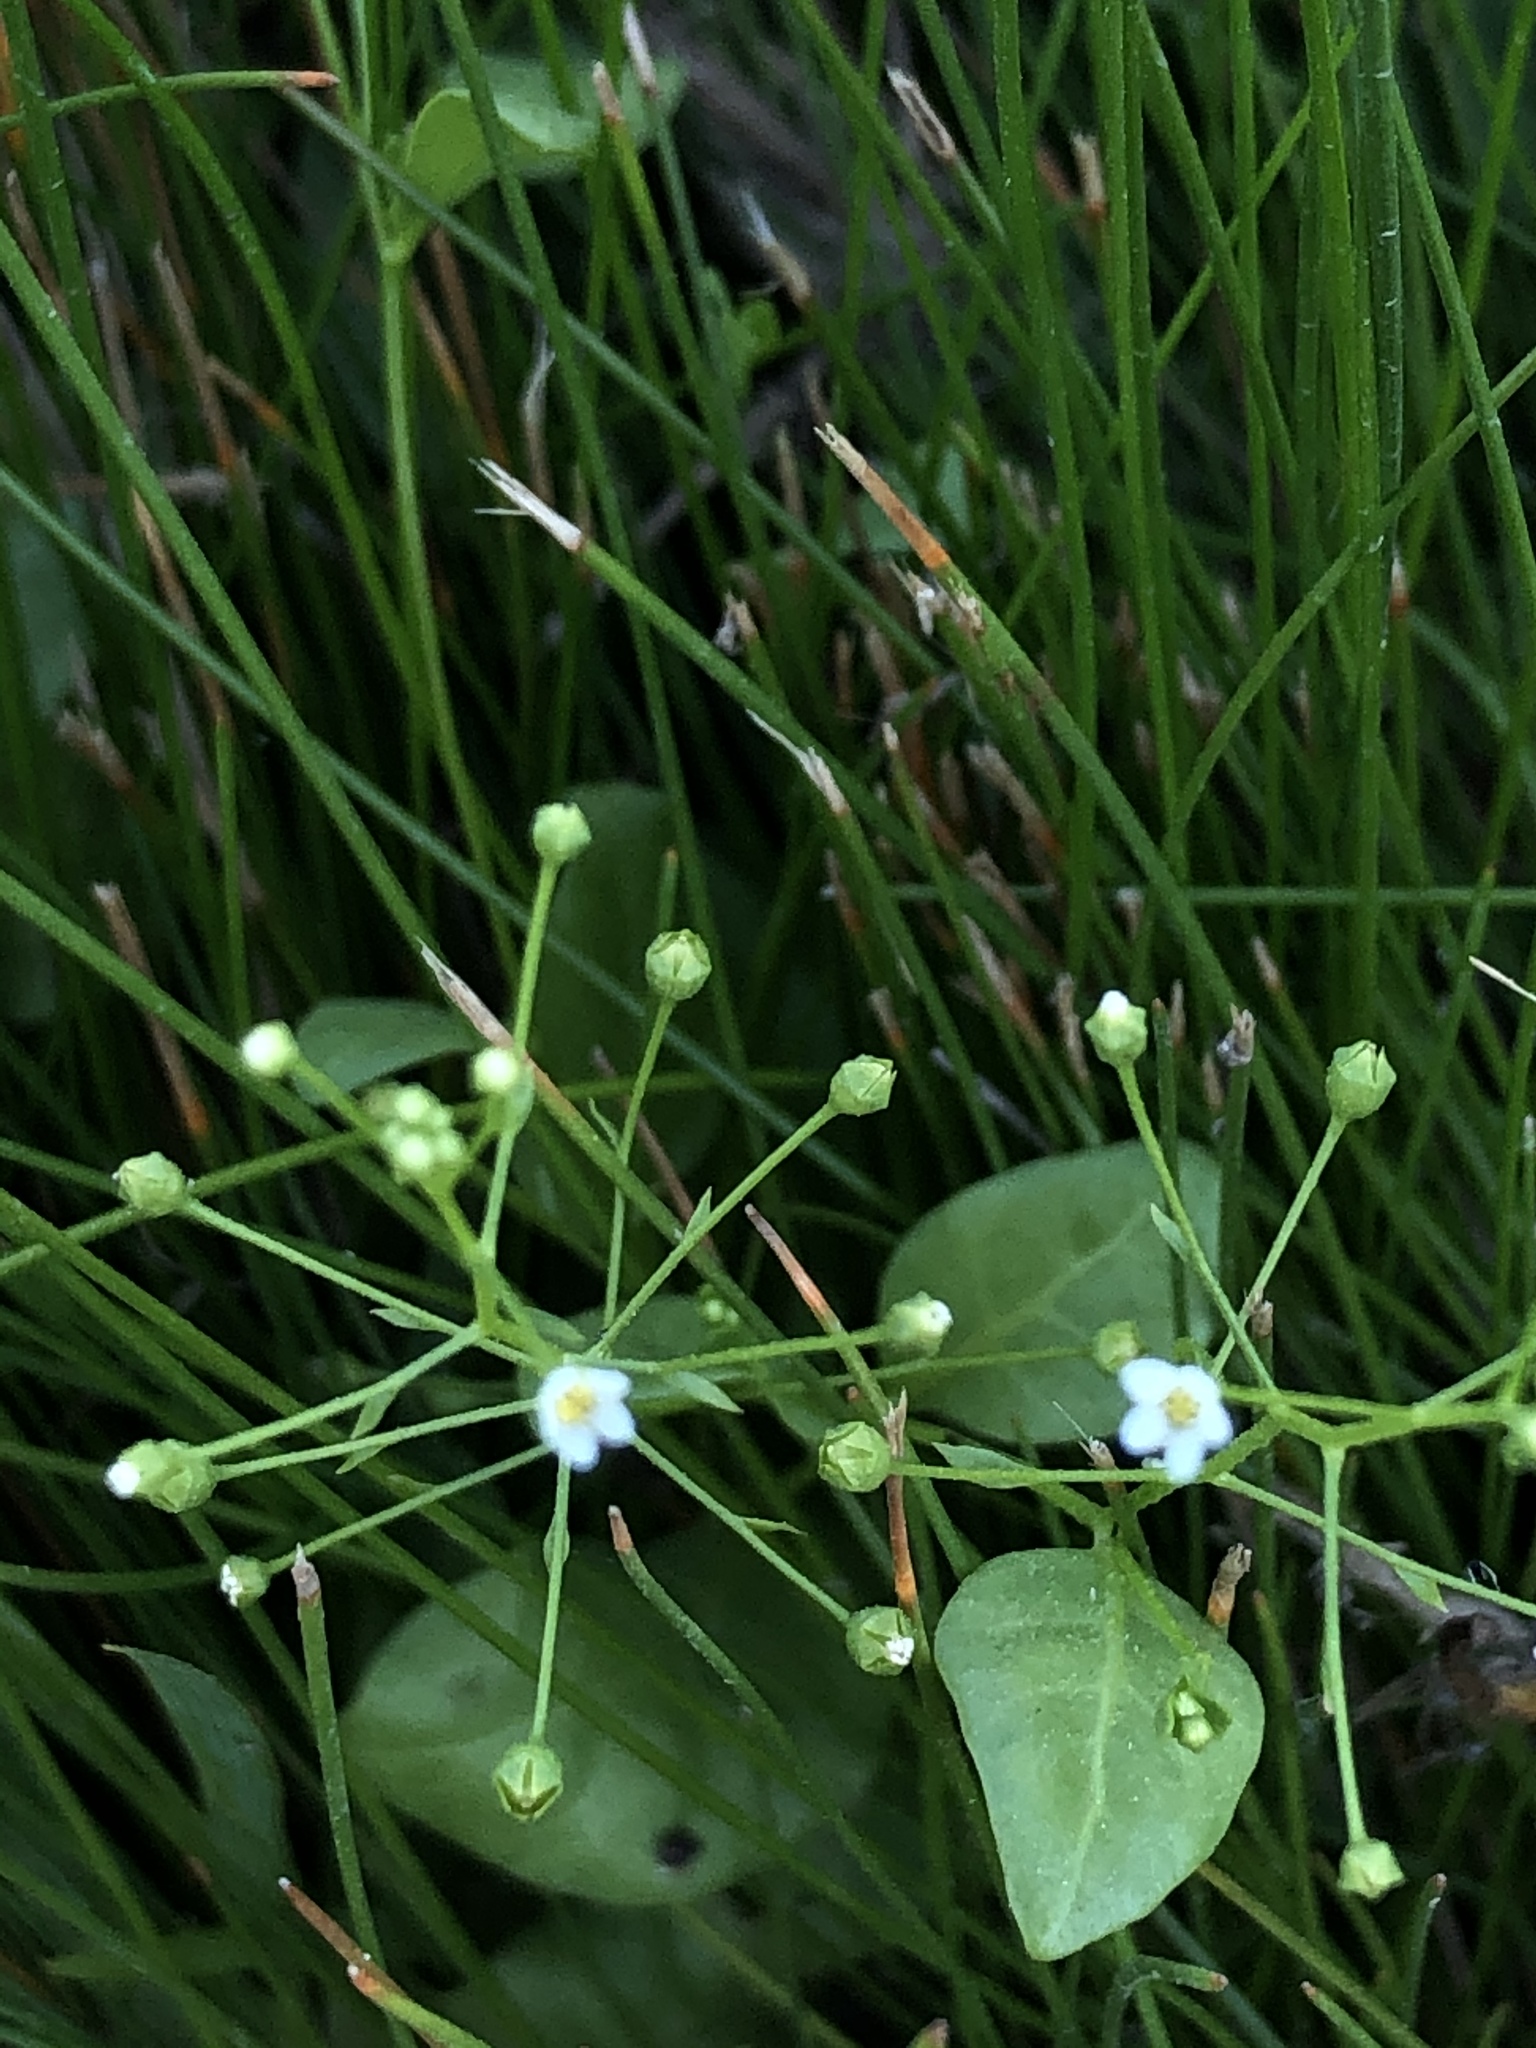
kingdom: Plantae
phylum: Tracheophyta
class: Magnoliopsida
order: Ericales
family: Primulaceae
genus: Samolus
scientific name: Samolus parviflorus
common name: False water pimpernel
